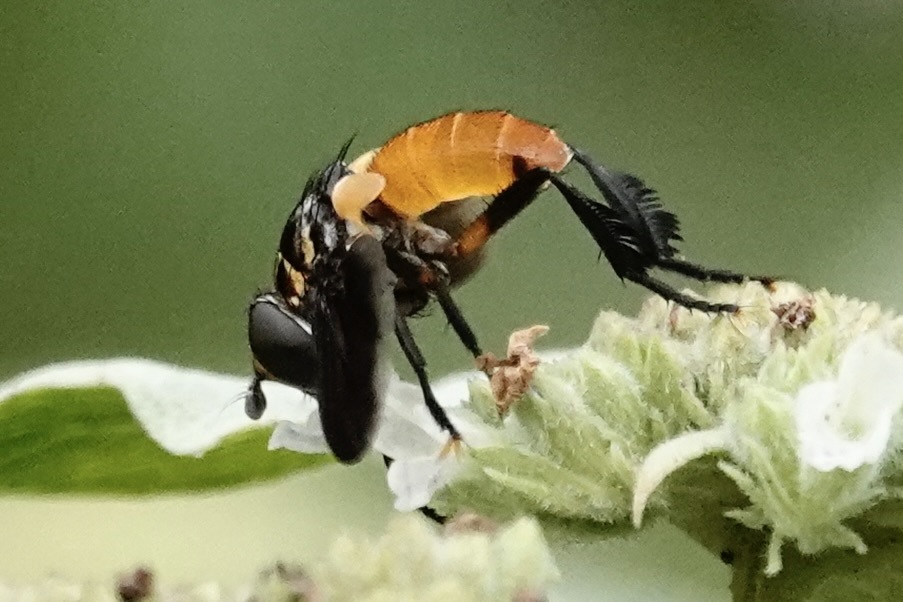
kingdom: Animalia
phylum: Arthropoda
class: Insecta
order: Diptera
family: Tachinidae
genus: Trichopoda
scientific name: Trichopoda pennipes
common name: Tachinid fly
